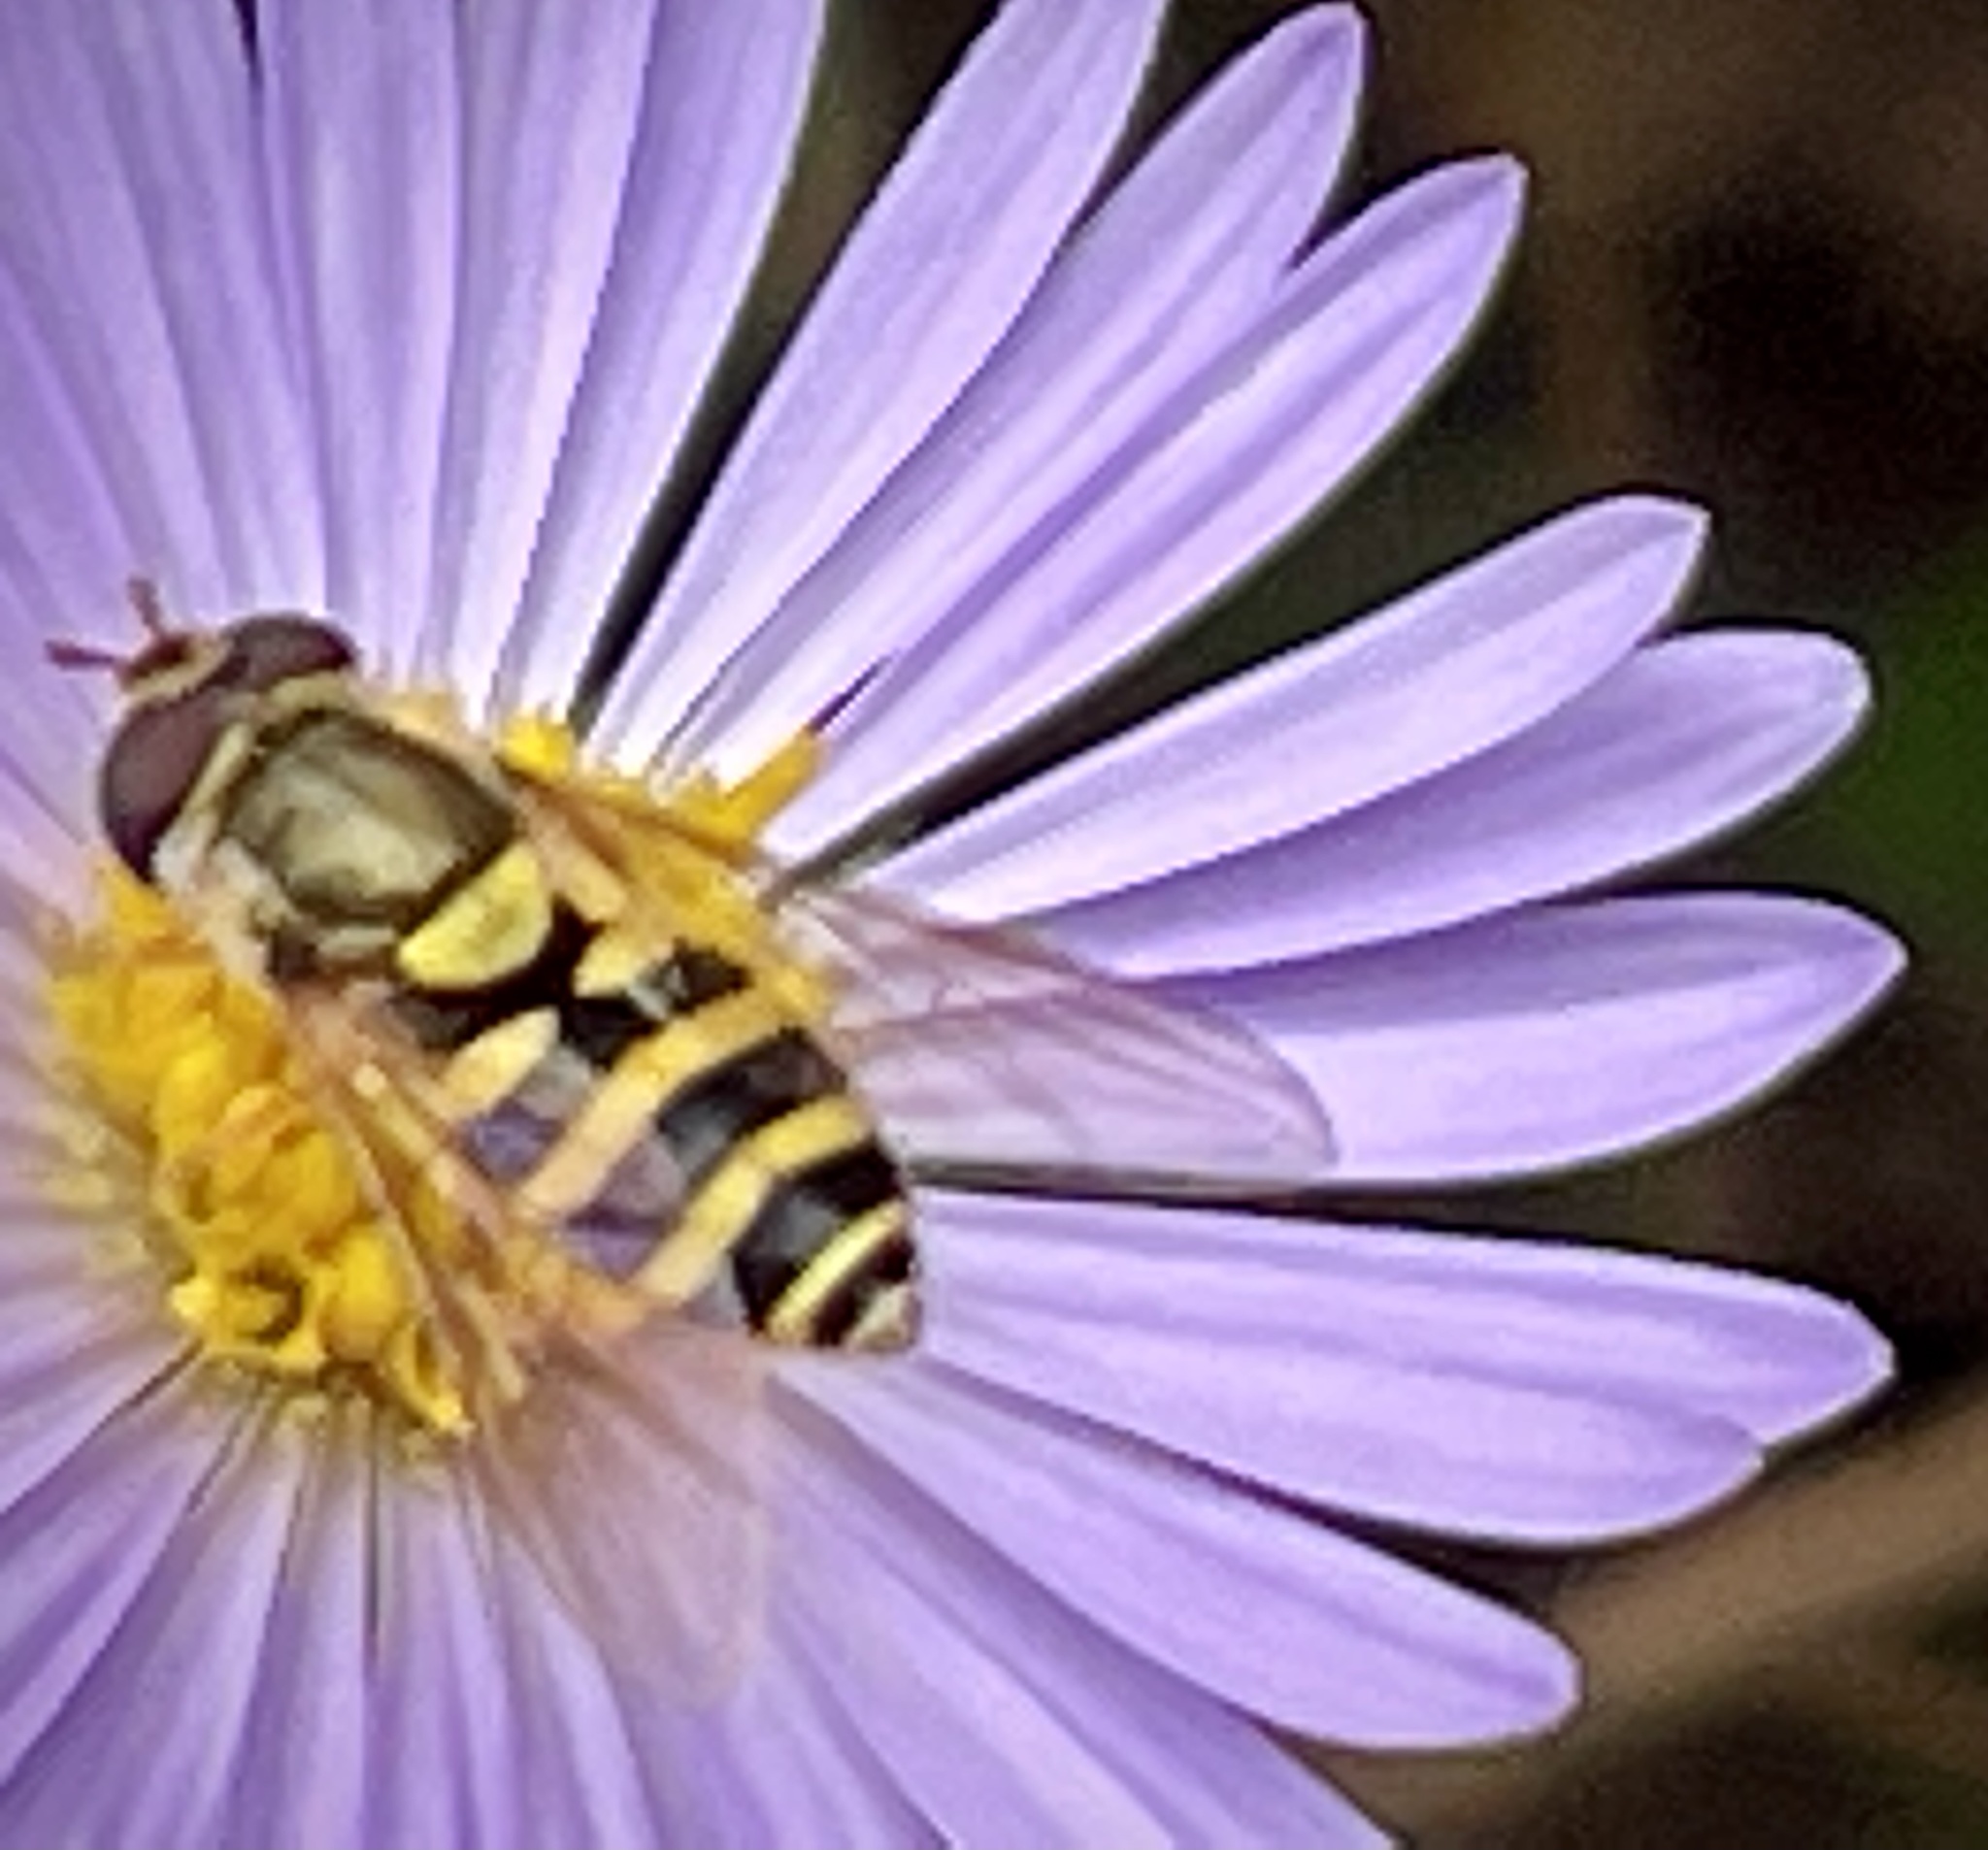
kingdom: Animalia
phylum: Arthropoda
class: Insecta
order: Diptera
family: Syrphidae
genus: Syrphus
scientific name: Syrphus rectus
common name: Yellow-legged flower fly
